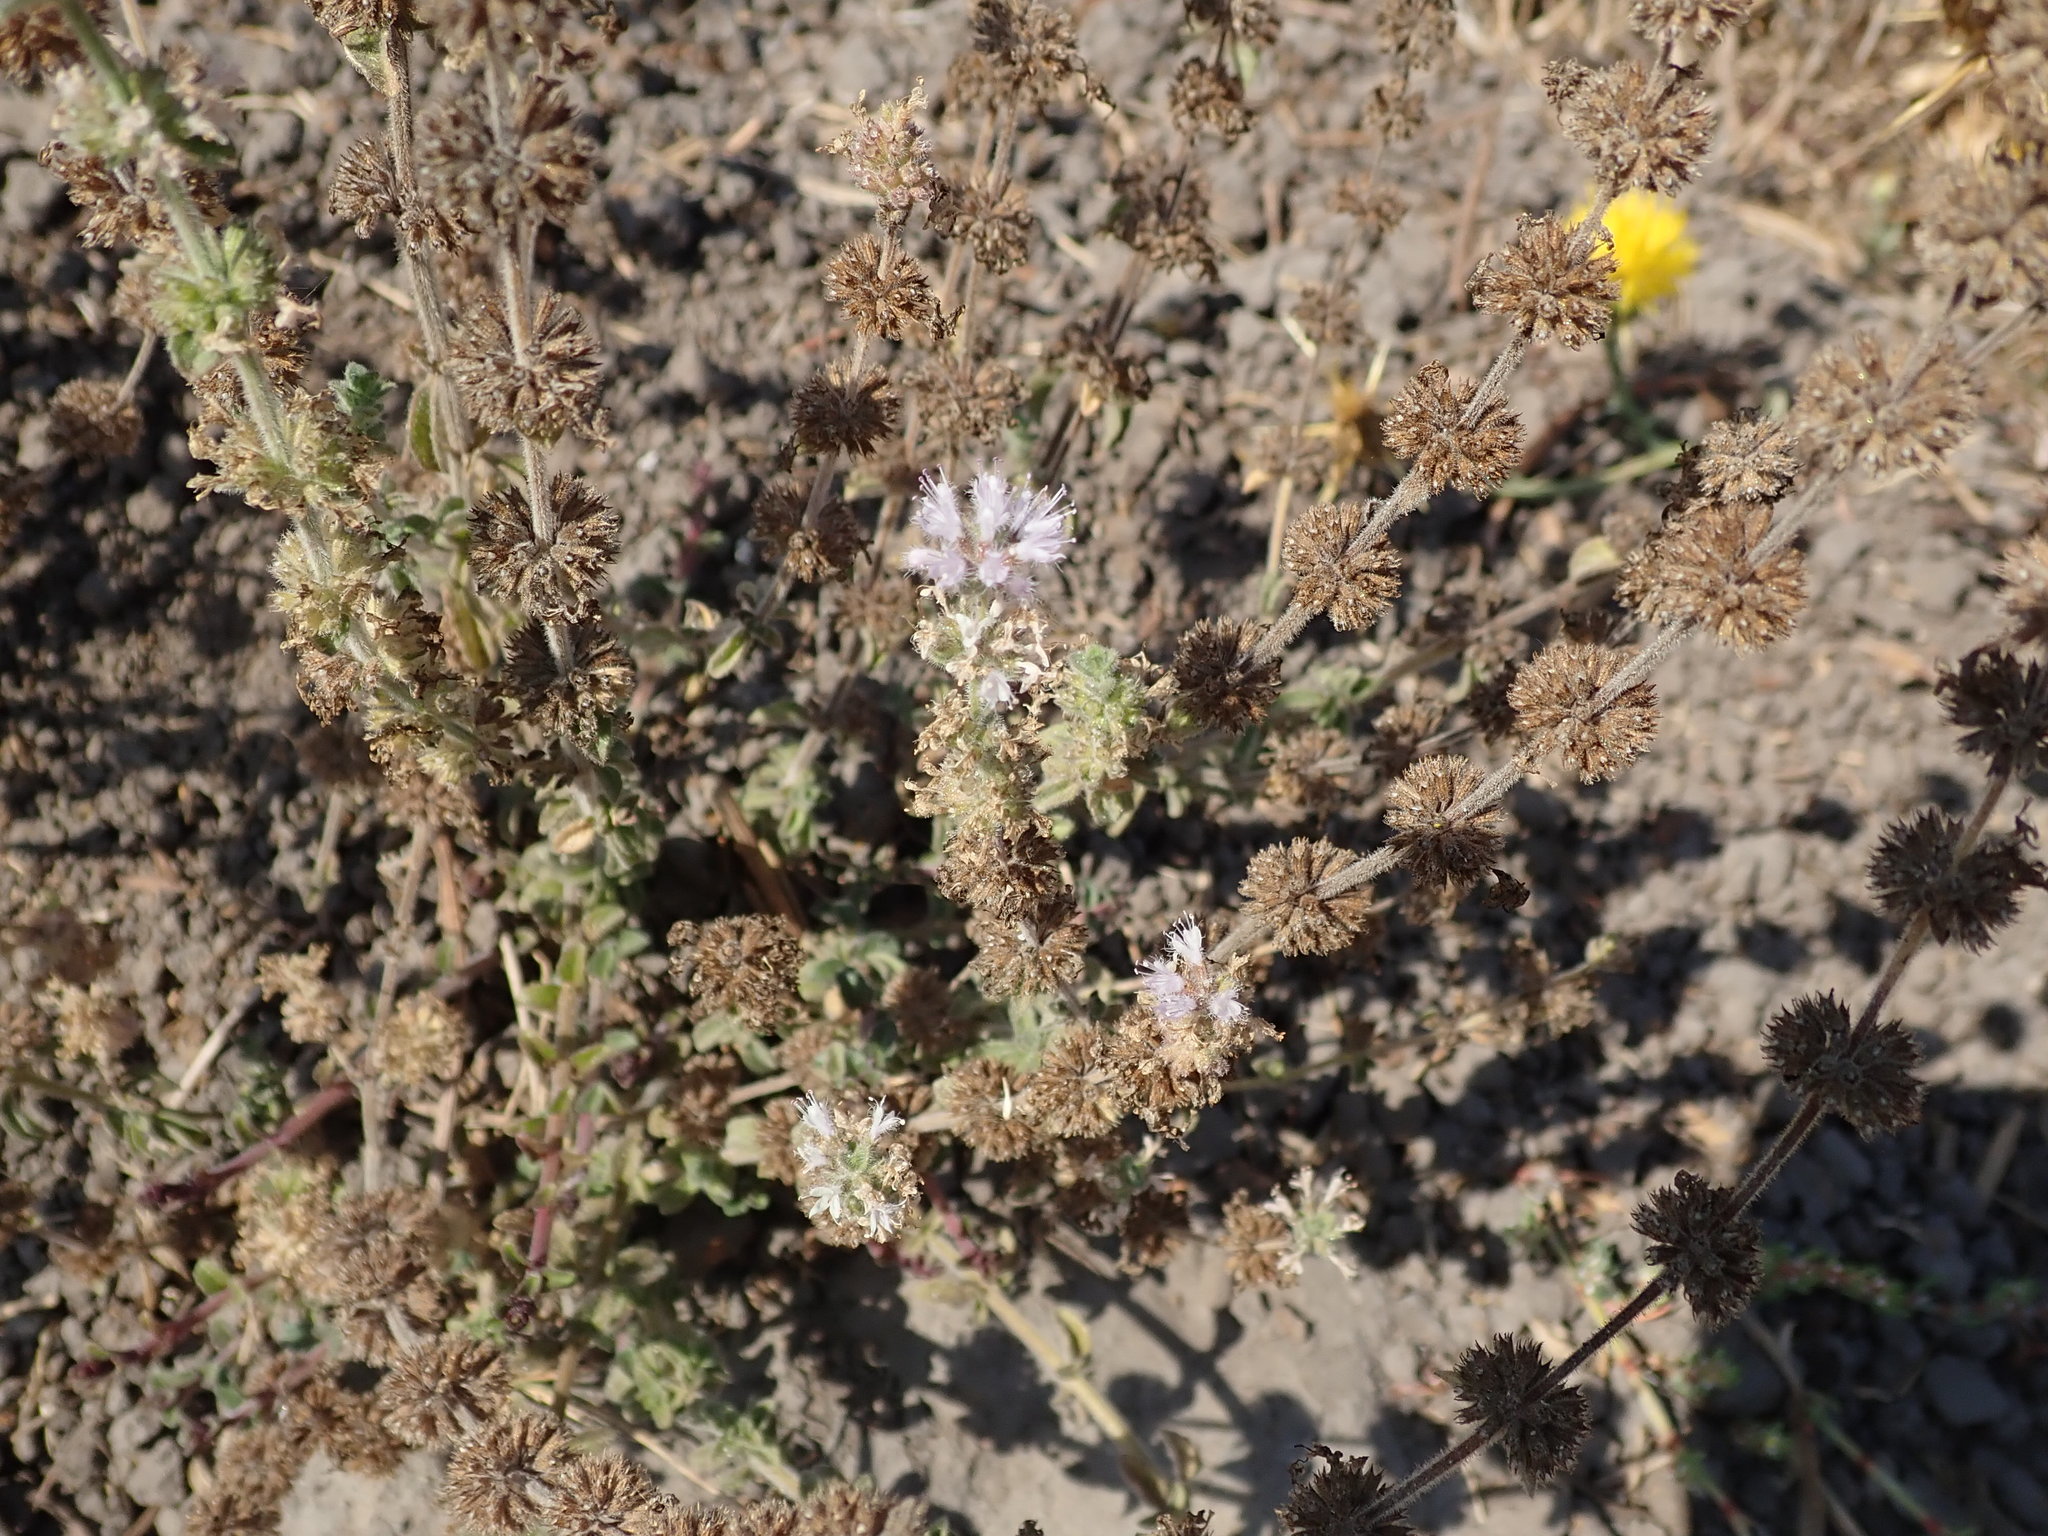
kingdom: Plantae
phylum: Tracheophyta
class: Magnoliopsida
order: Lamiales
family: Lamiaceae
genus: Mentha
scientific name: Mentha pulegium
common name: Pennyroyal
